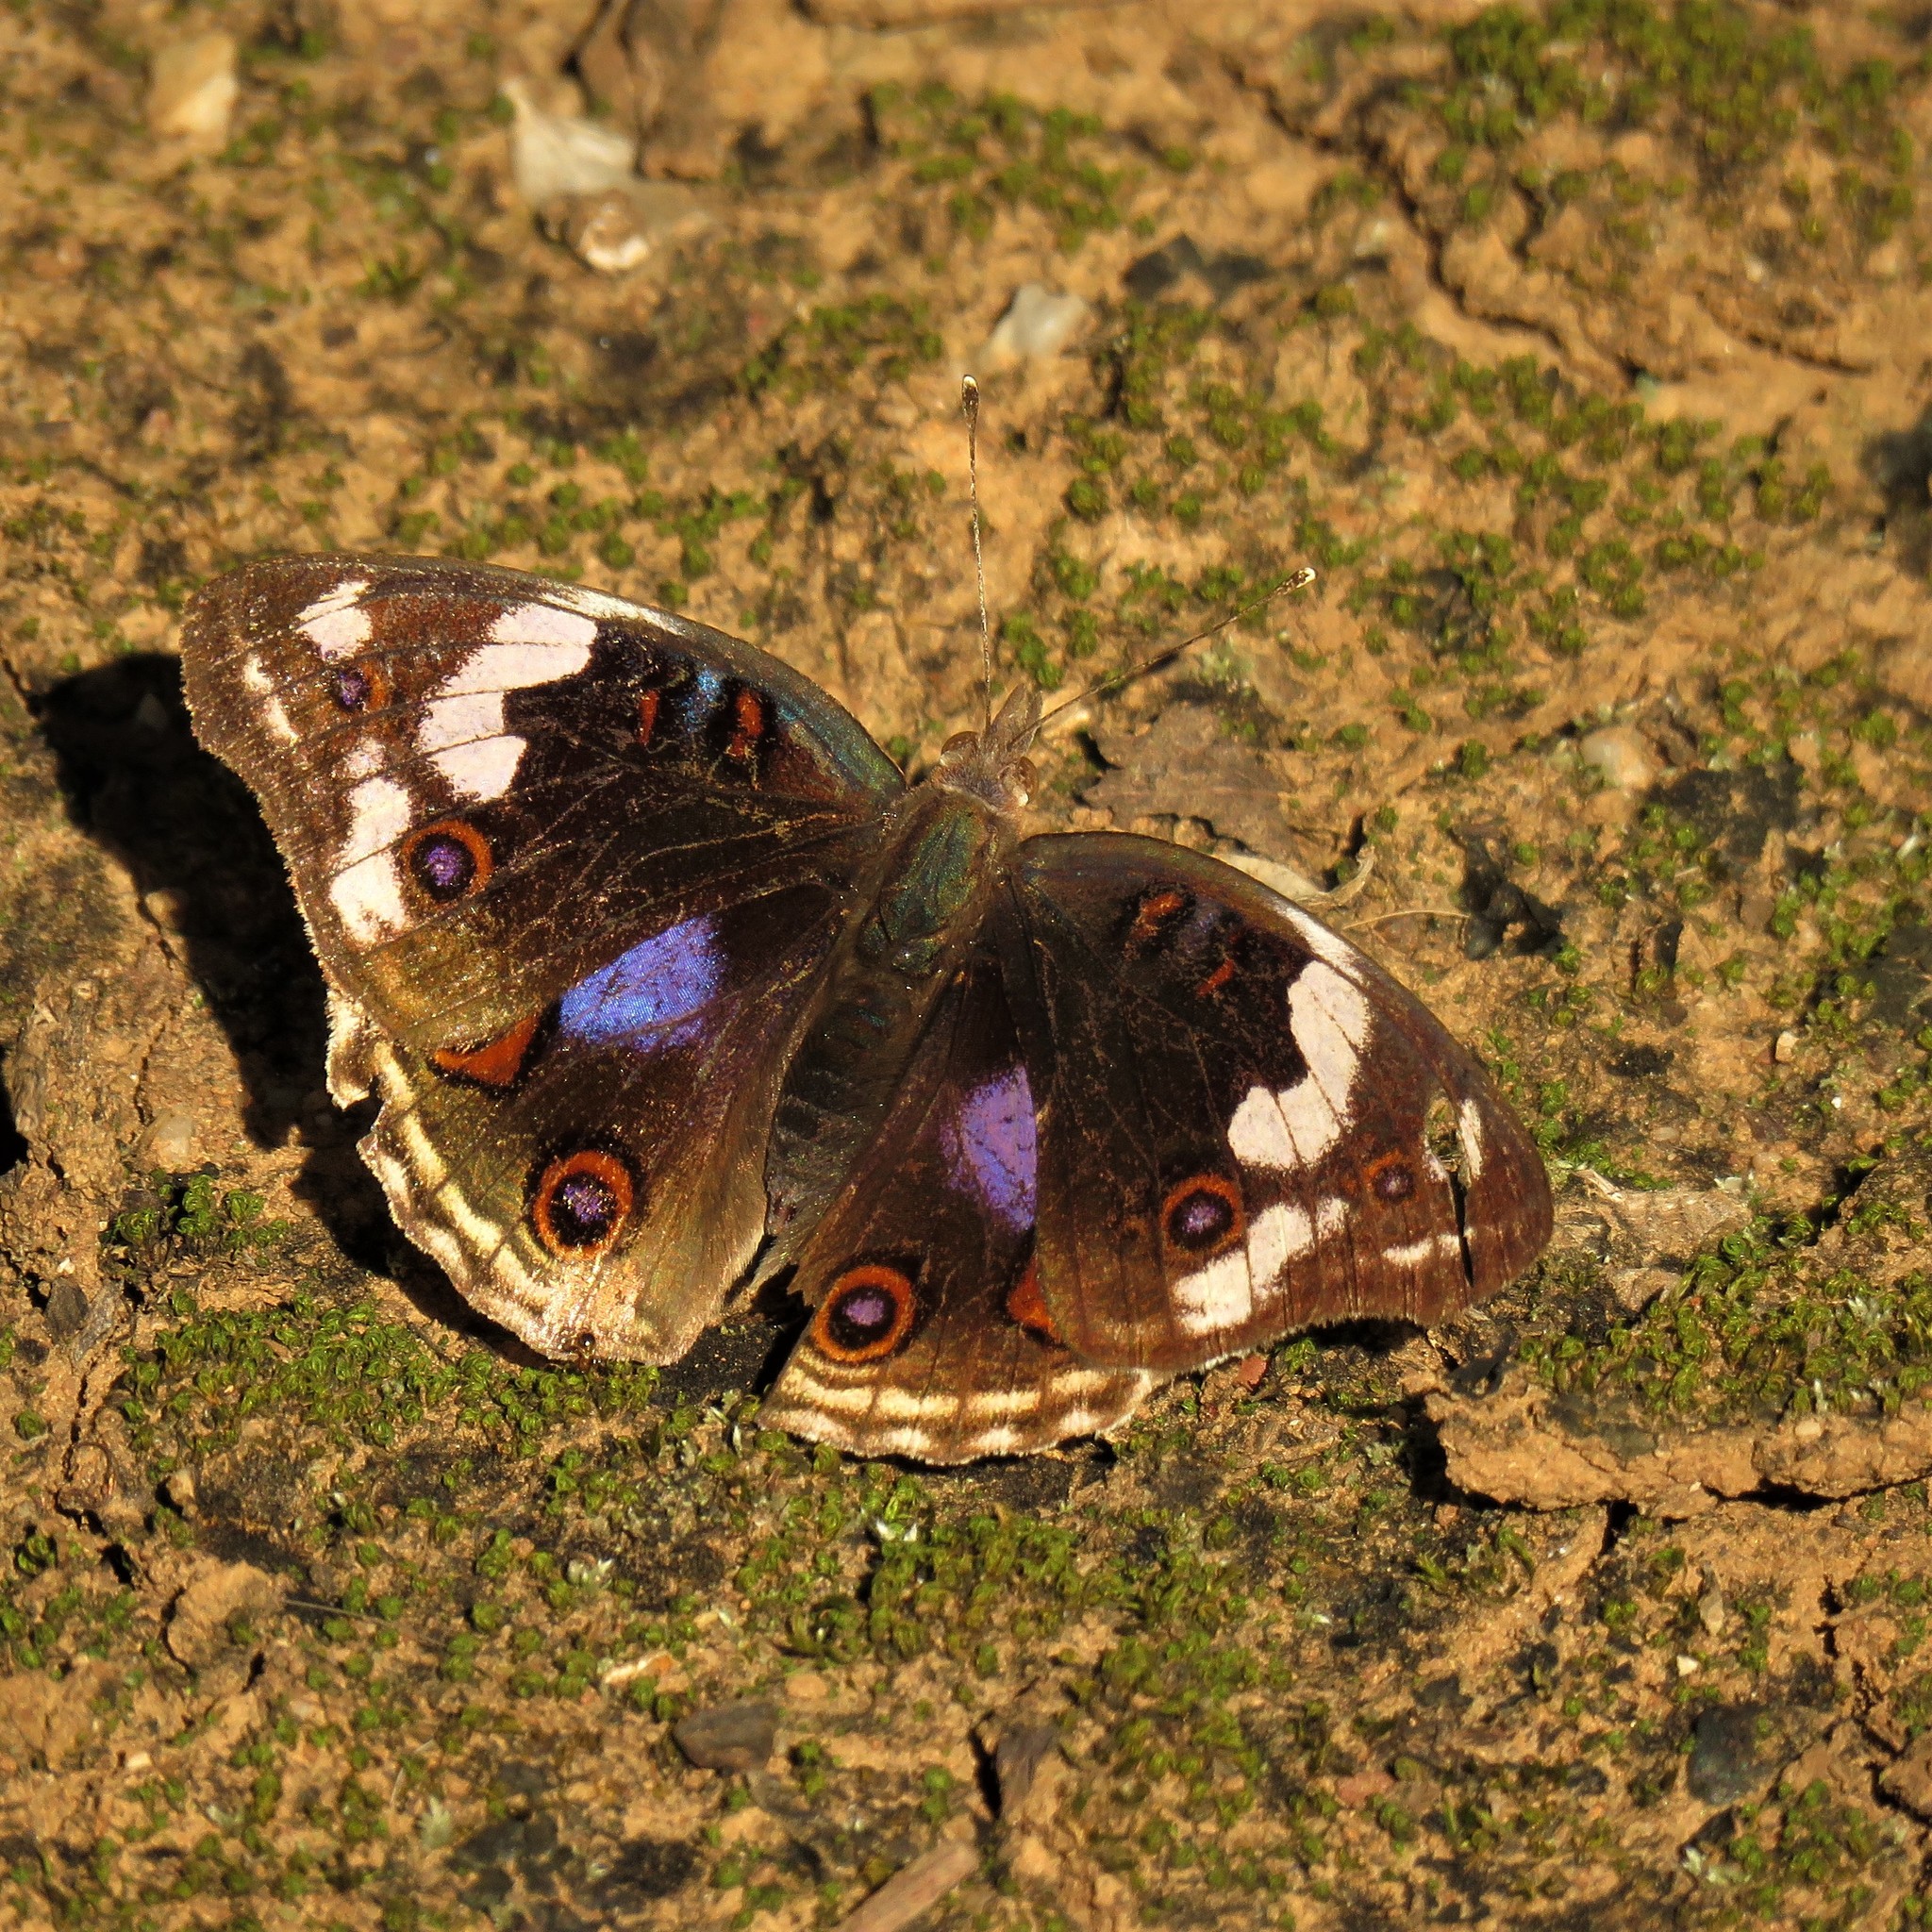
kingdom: Animalia
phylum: Arthropoda
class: Insecta
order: Lepidoptera
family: Nymphalidae
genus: Junonia
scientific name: Junonia oenone
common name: Dark blue pansy
